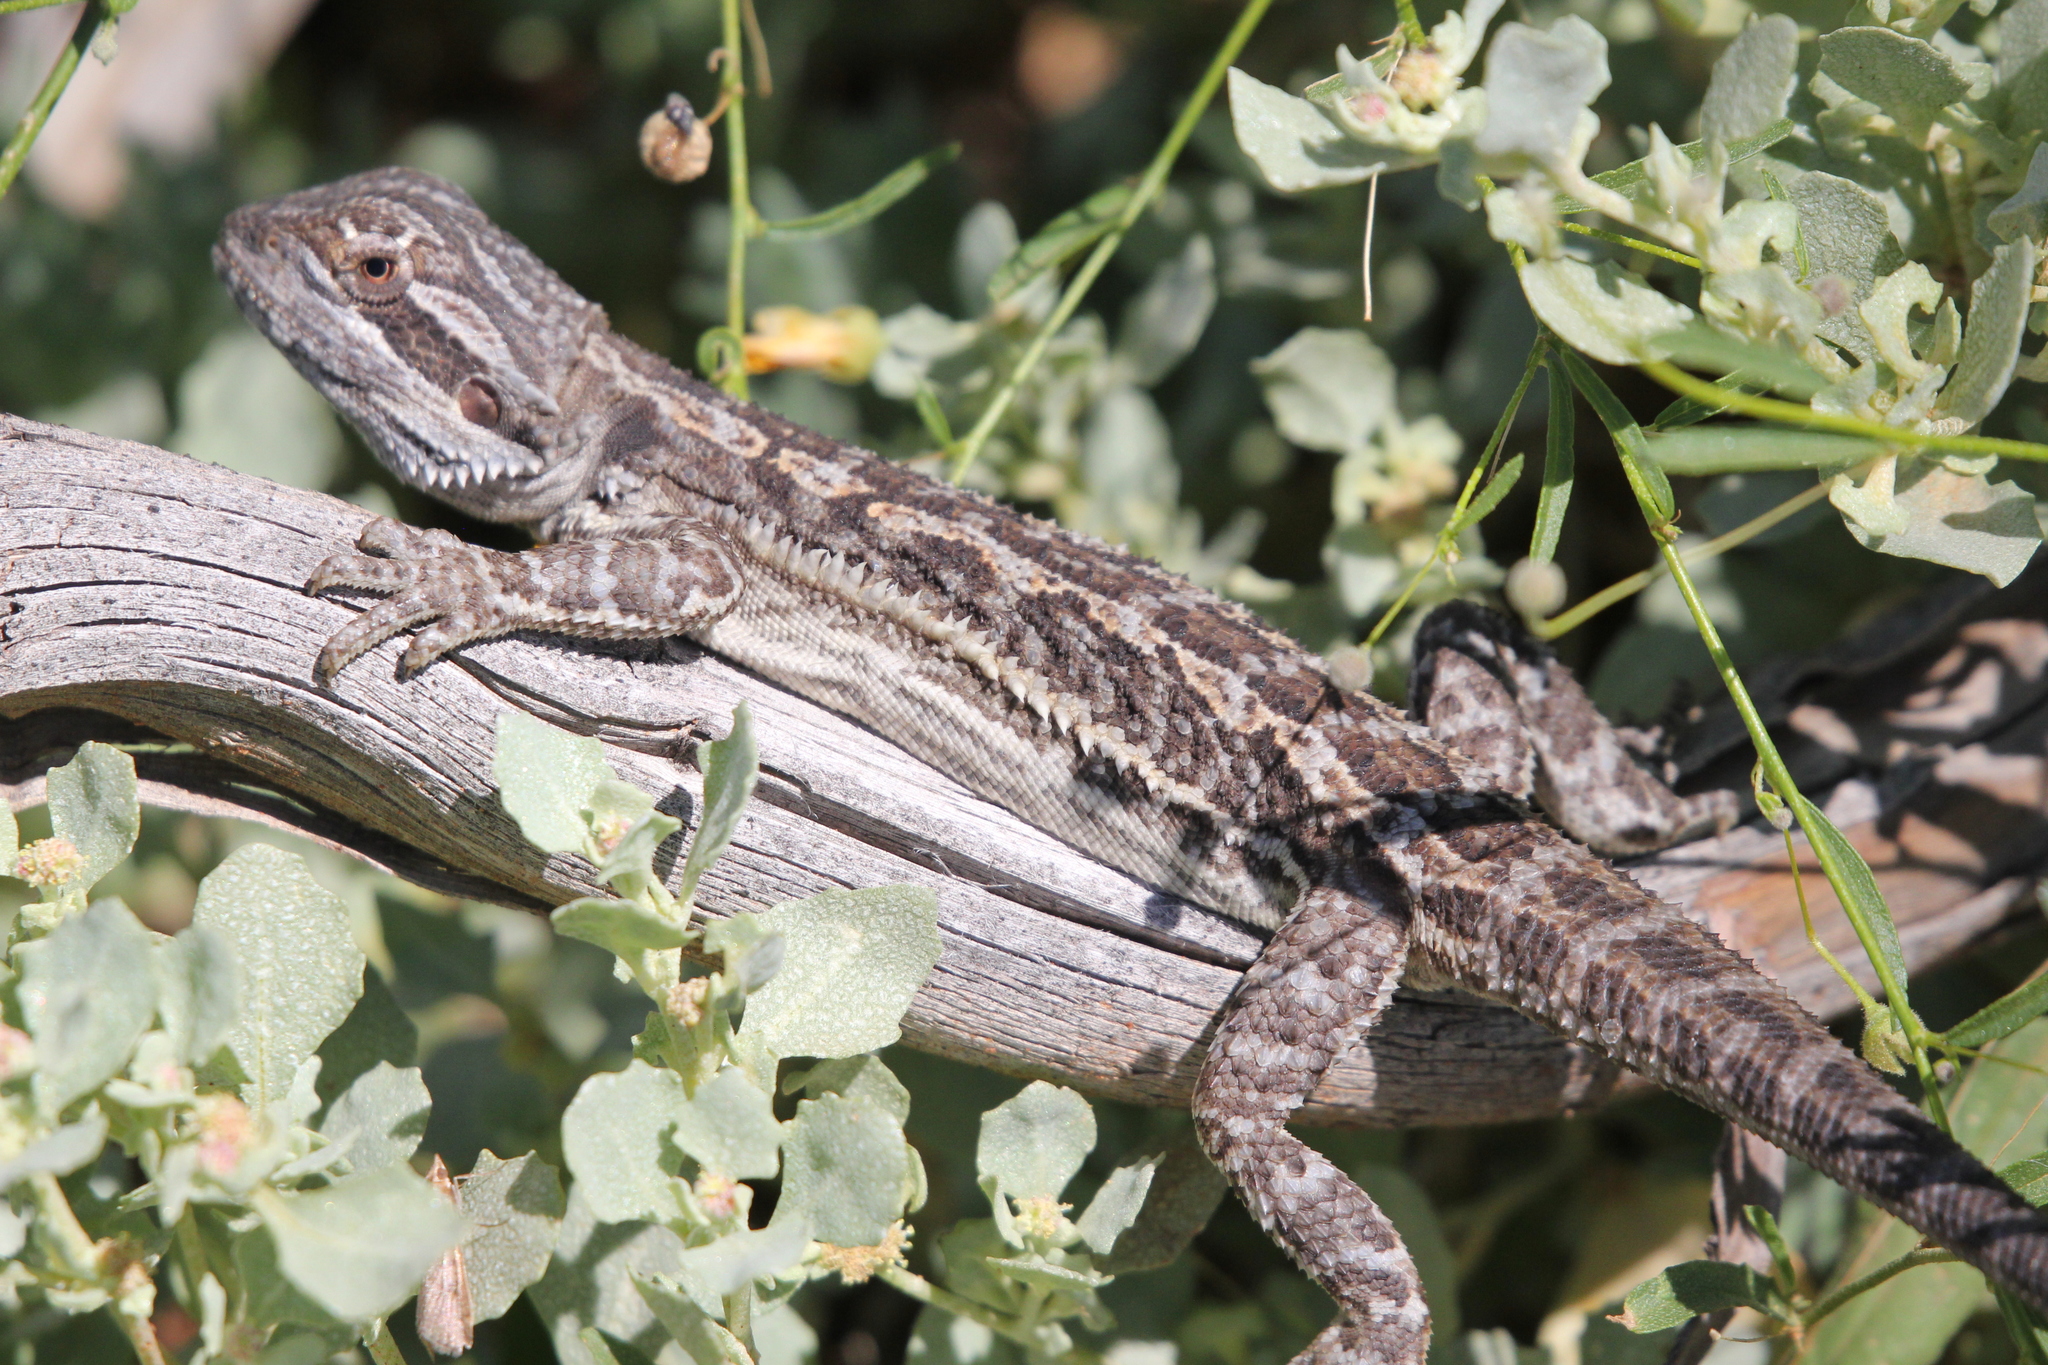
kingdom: Animalia
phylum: Chordata
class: Squamata
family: Agamidae
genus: Pogona
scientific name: Pogona vitticeps
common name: Central bearded dragon
